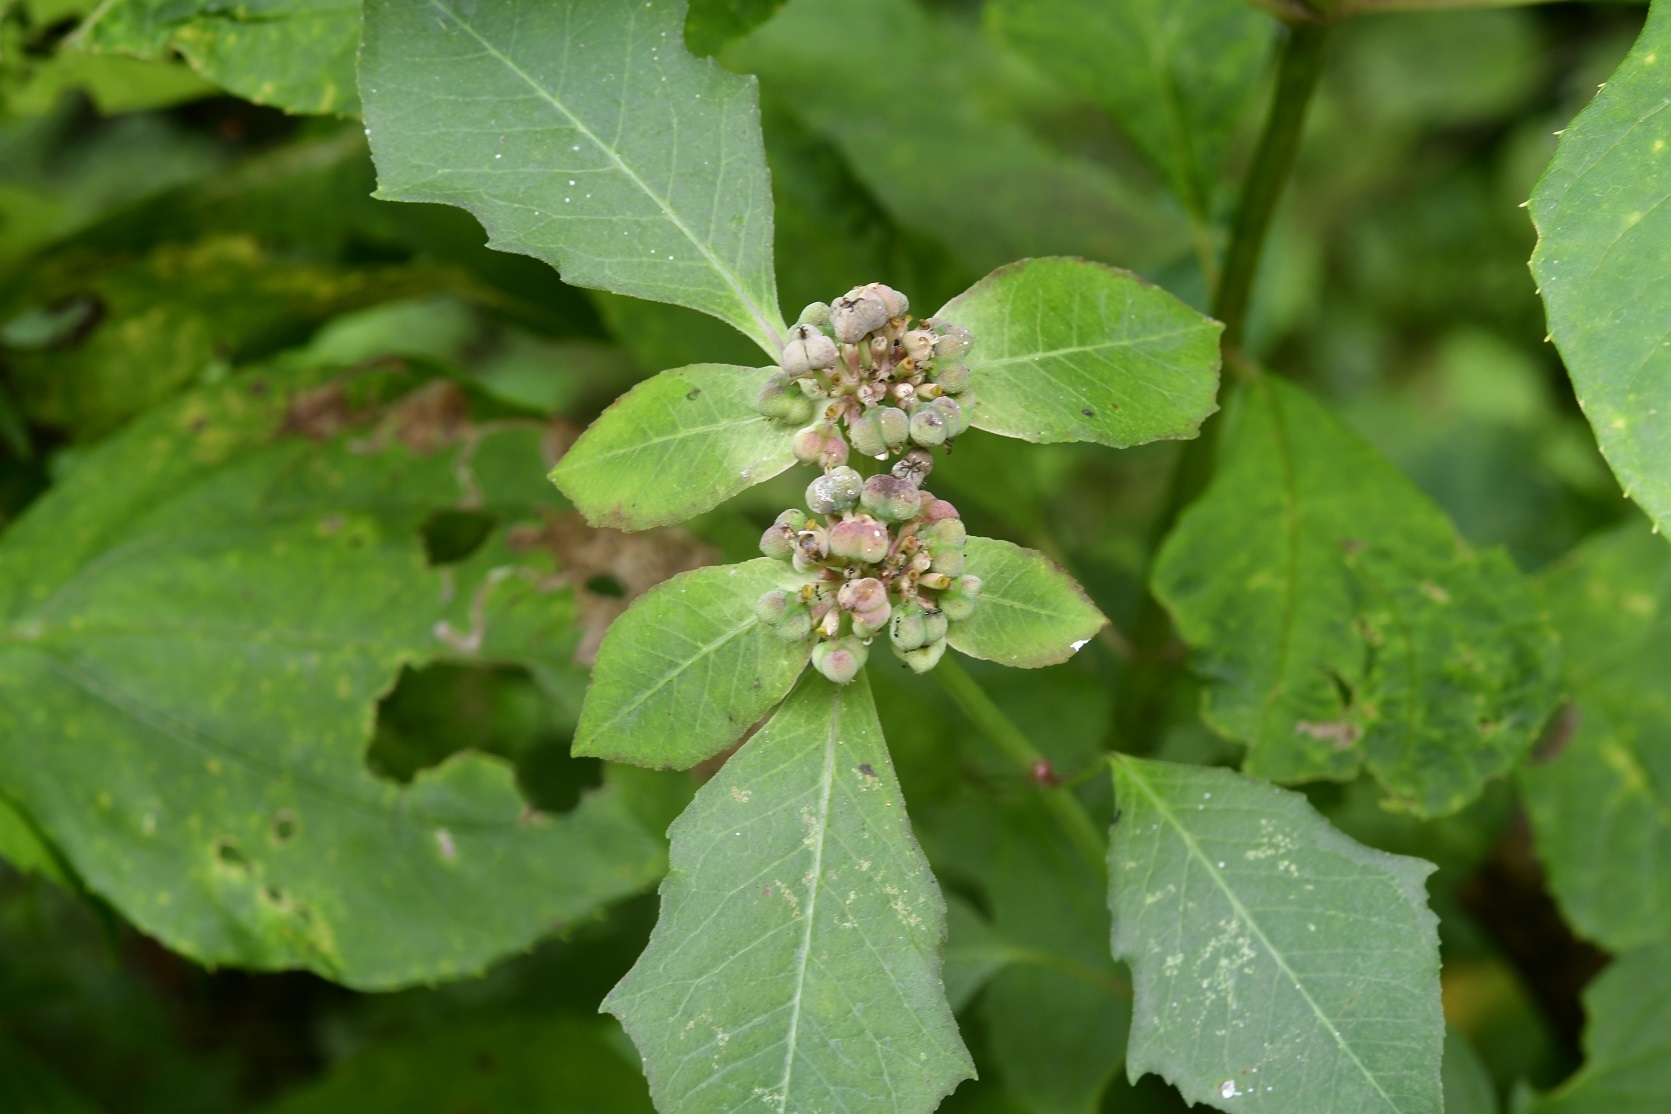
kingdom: Plantae
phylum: Tracheophyta
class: Magnoliopsida
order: Malpighiales
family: Euphorbiaceae
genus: Euphorbia
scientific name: Euphorbia heterophylla
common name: Mexican fireplant
